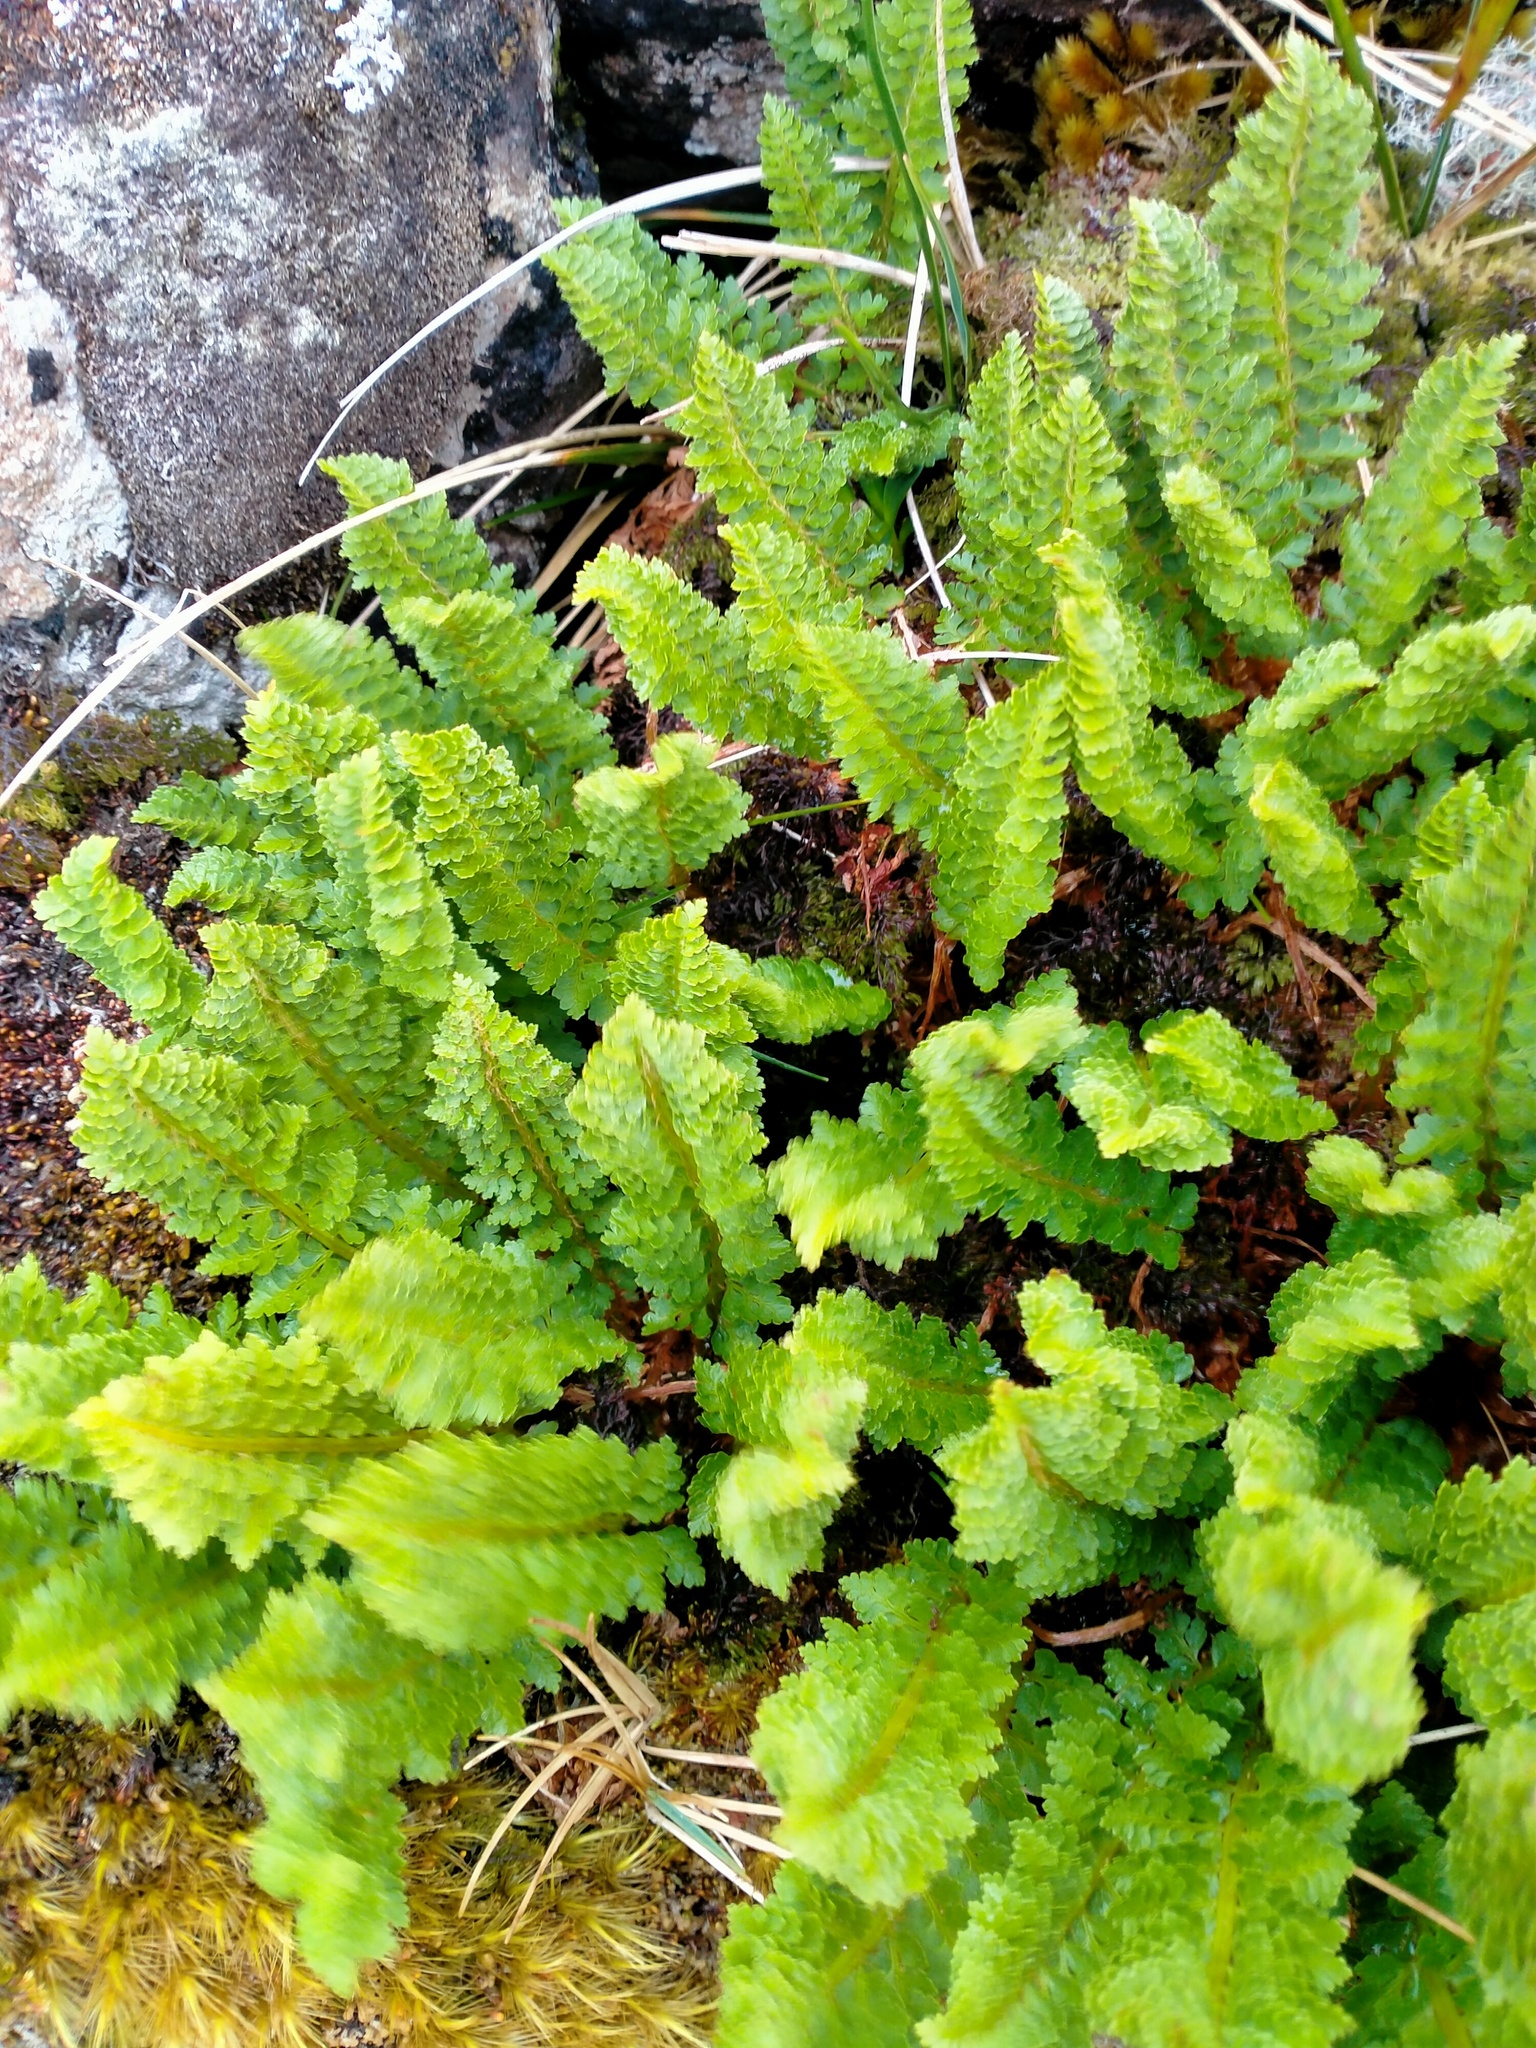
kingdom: Plantae
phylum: Tracheophyta
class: Polypodiopsida
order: Polypodiales
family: Dryopteridaceae
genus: Polystichum
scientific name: Polystichum cystostegia
